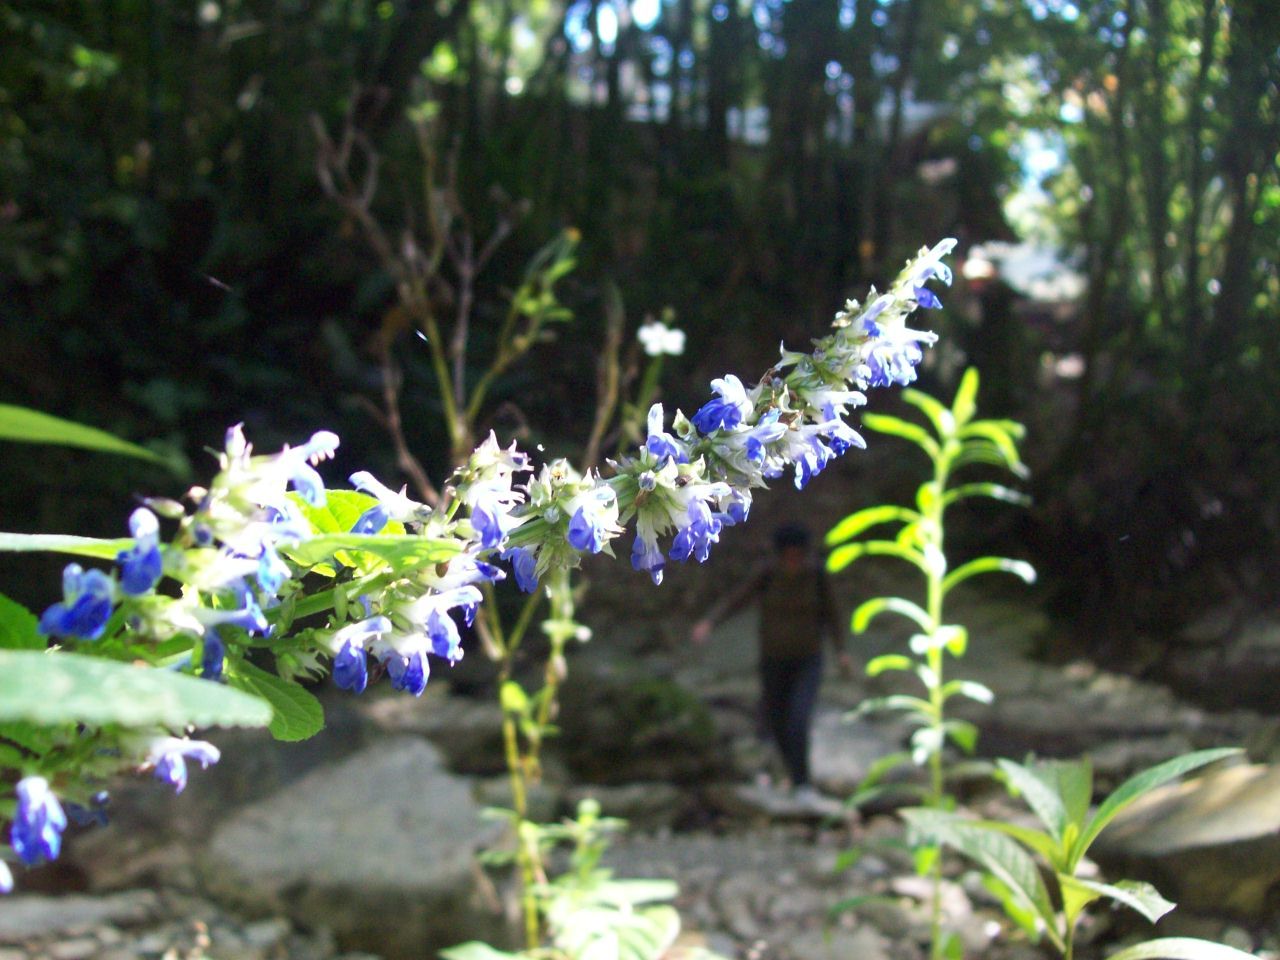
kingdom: Plantae
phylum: Tracheophyta
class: Magnoliopsida
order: Lamiales
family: Lamiaceae
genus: Salvia
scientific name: Salvia xalapensis
